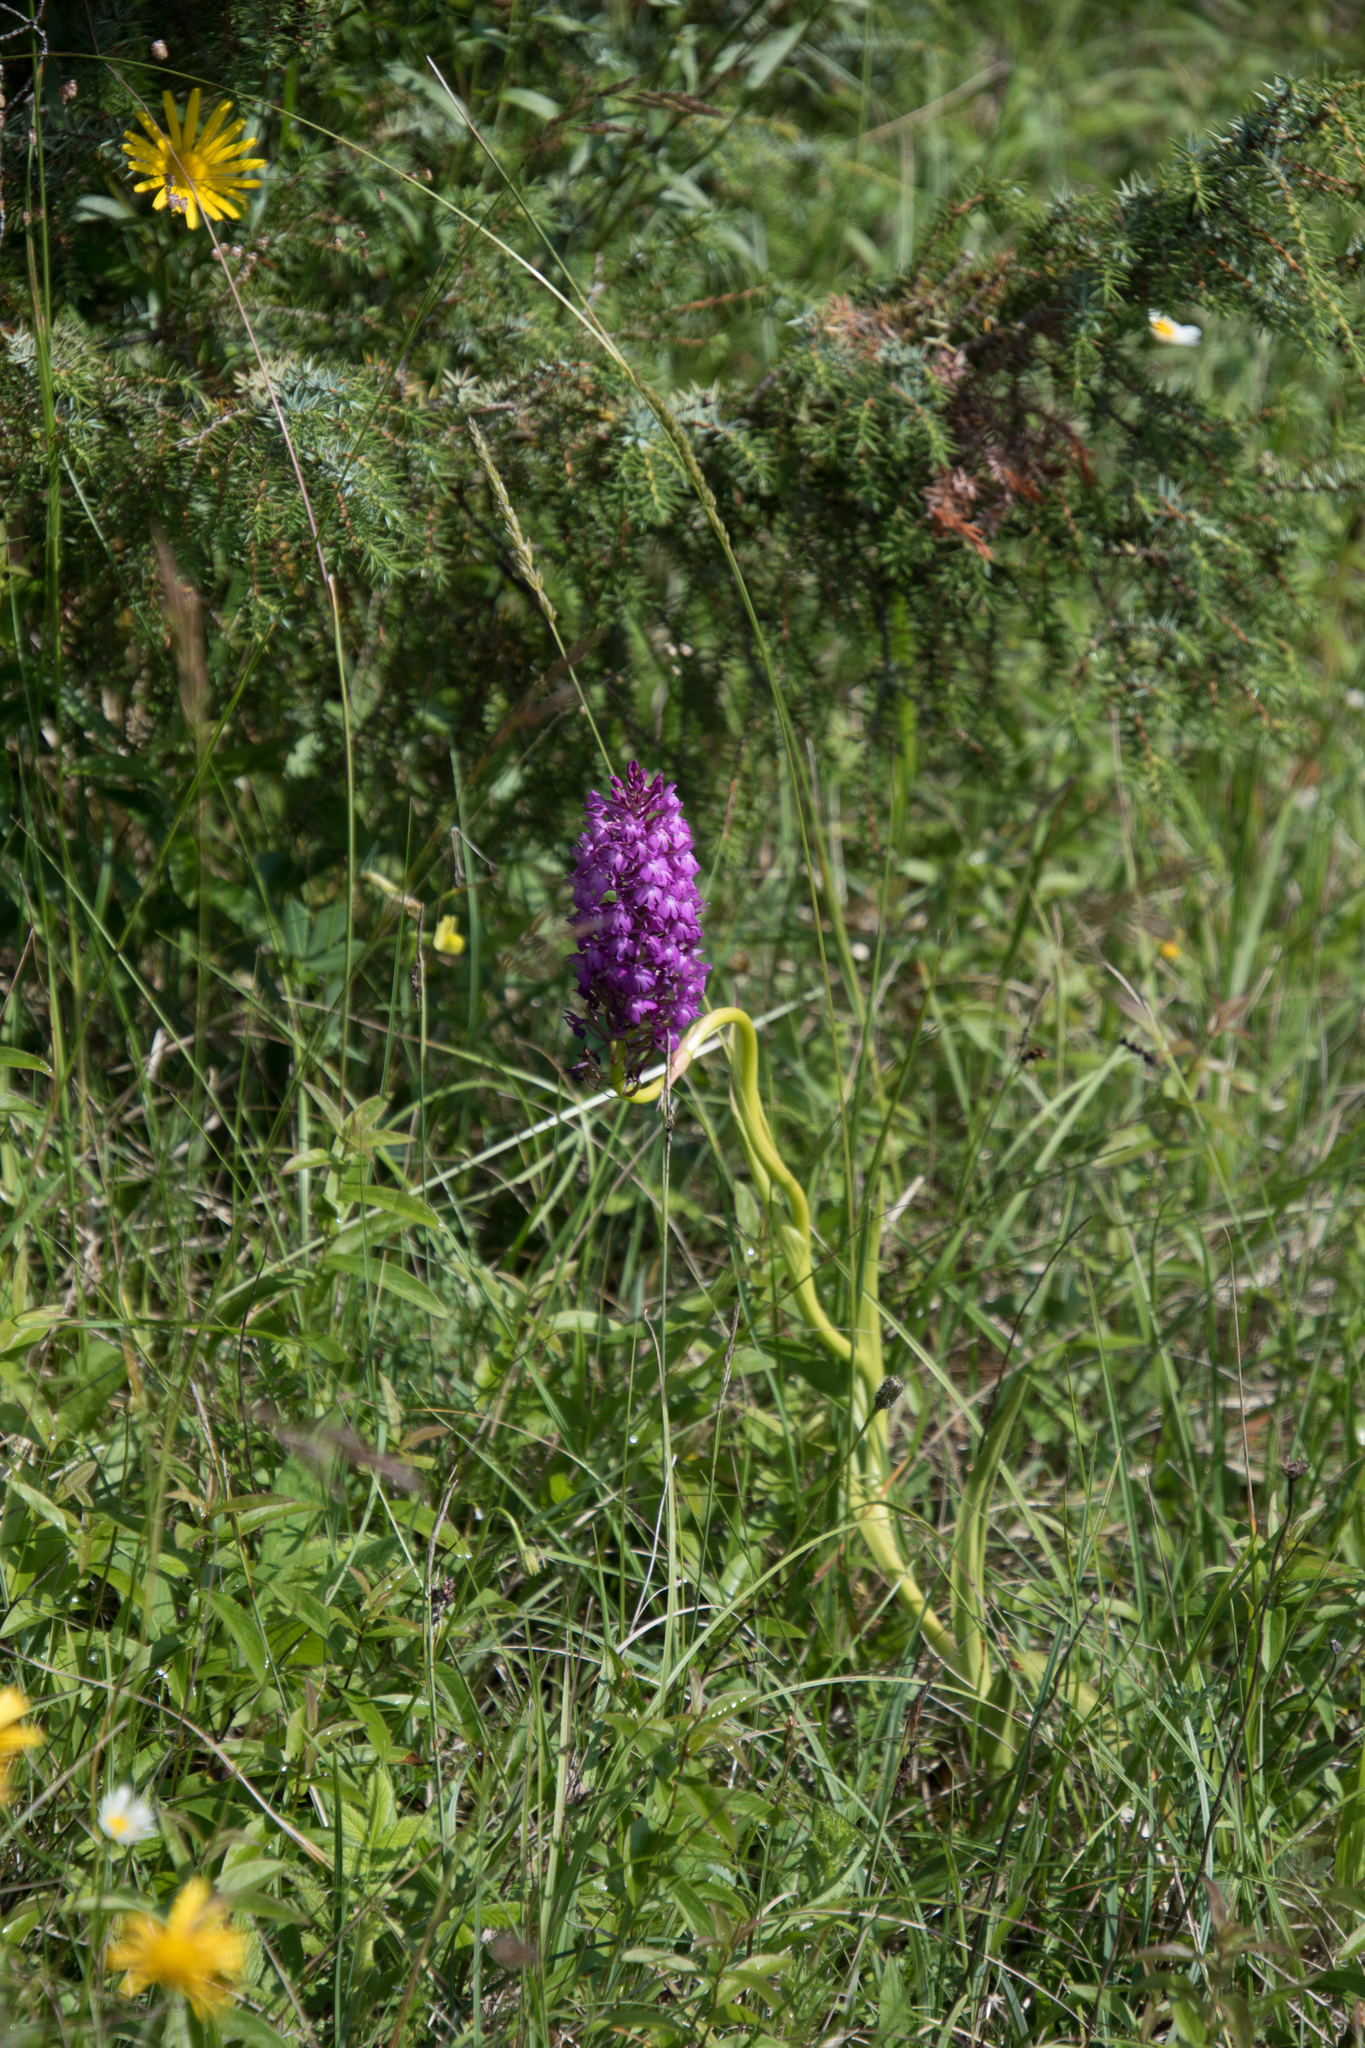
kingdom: Plantae
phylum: Tracheophyta
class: Liliopsida
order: Asparagales
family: Orchidaceae
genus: Anacamptis
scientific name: Anacamptis pyramidalis
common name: Pyramidal orchid
